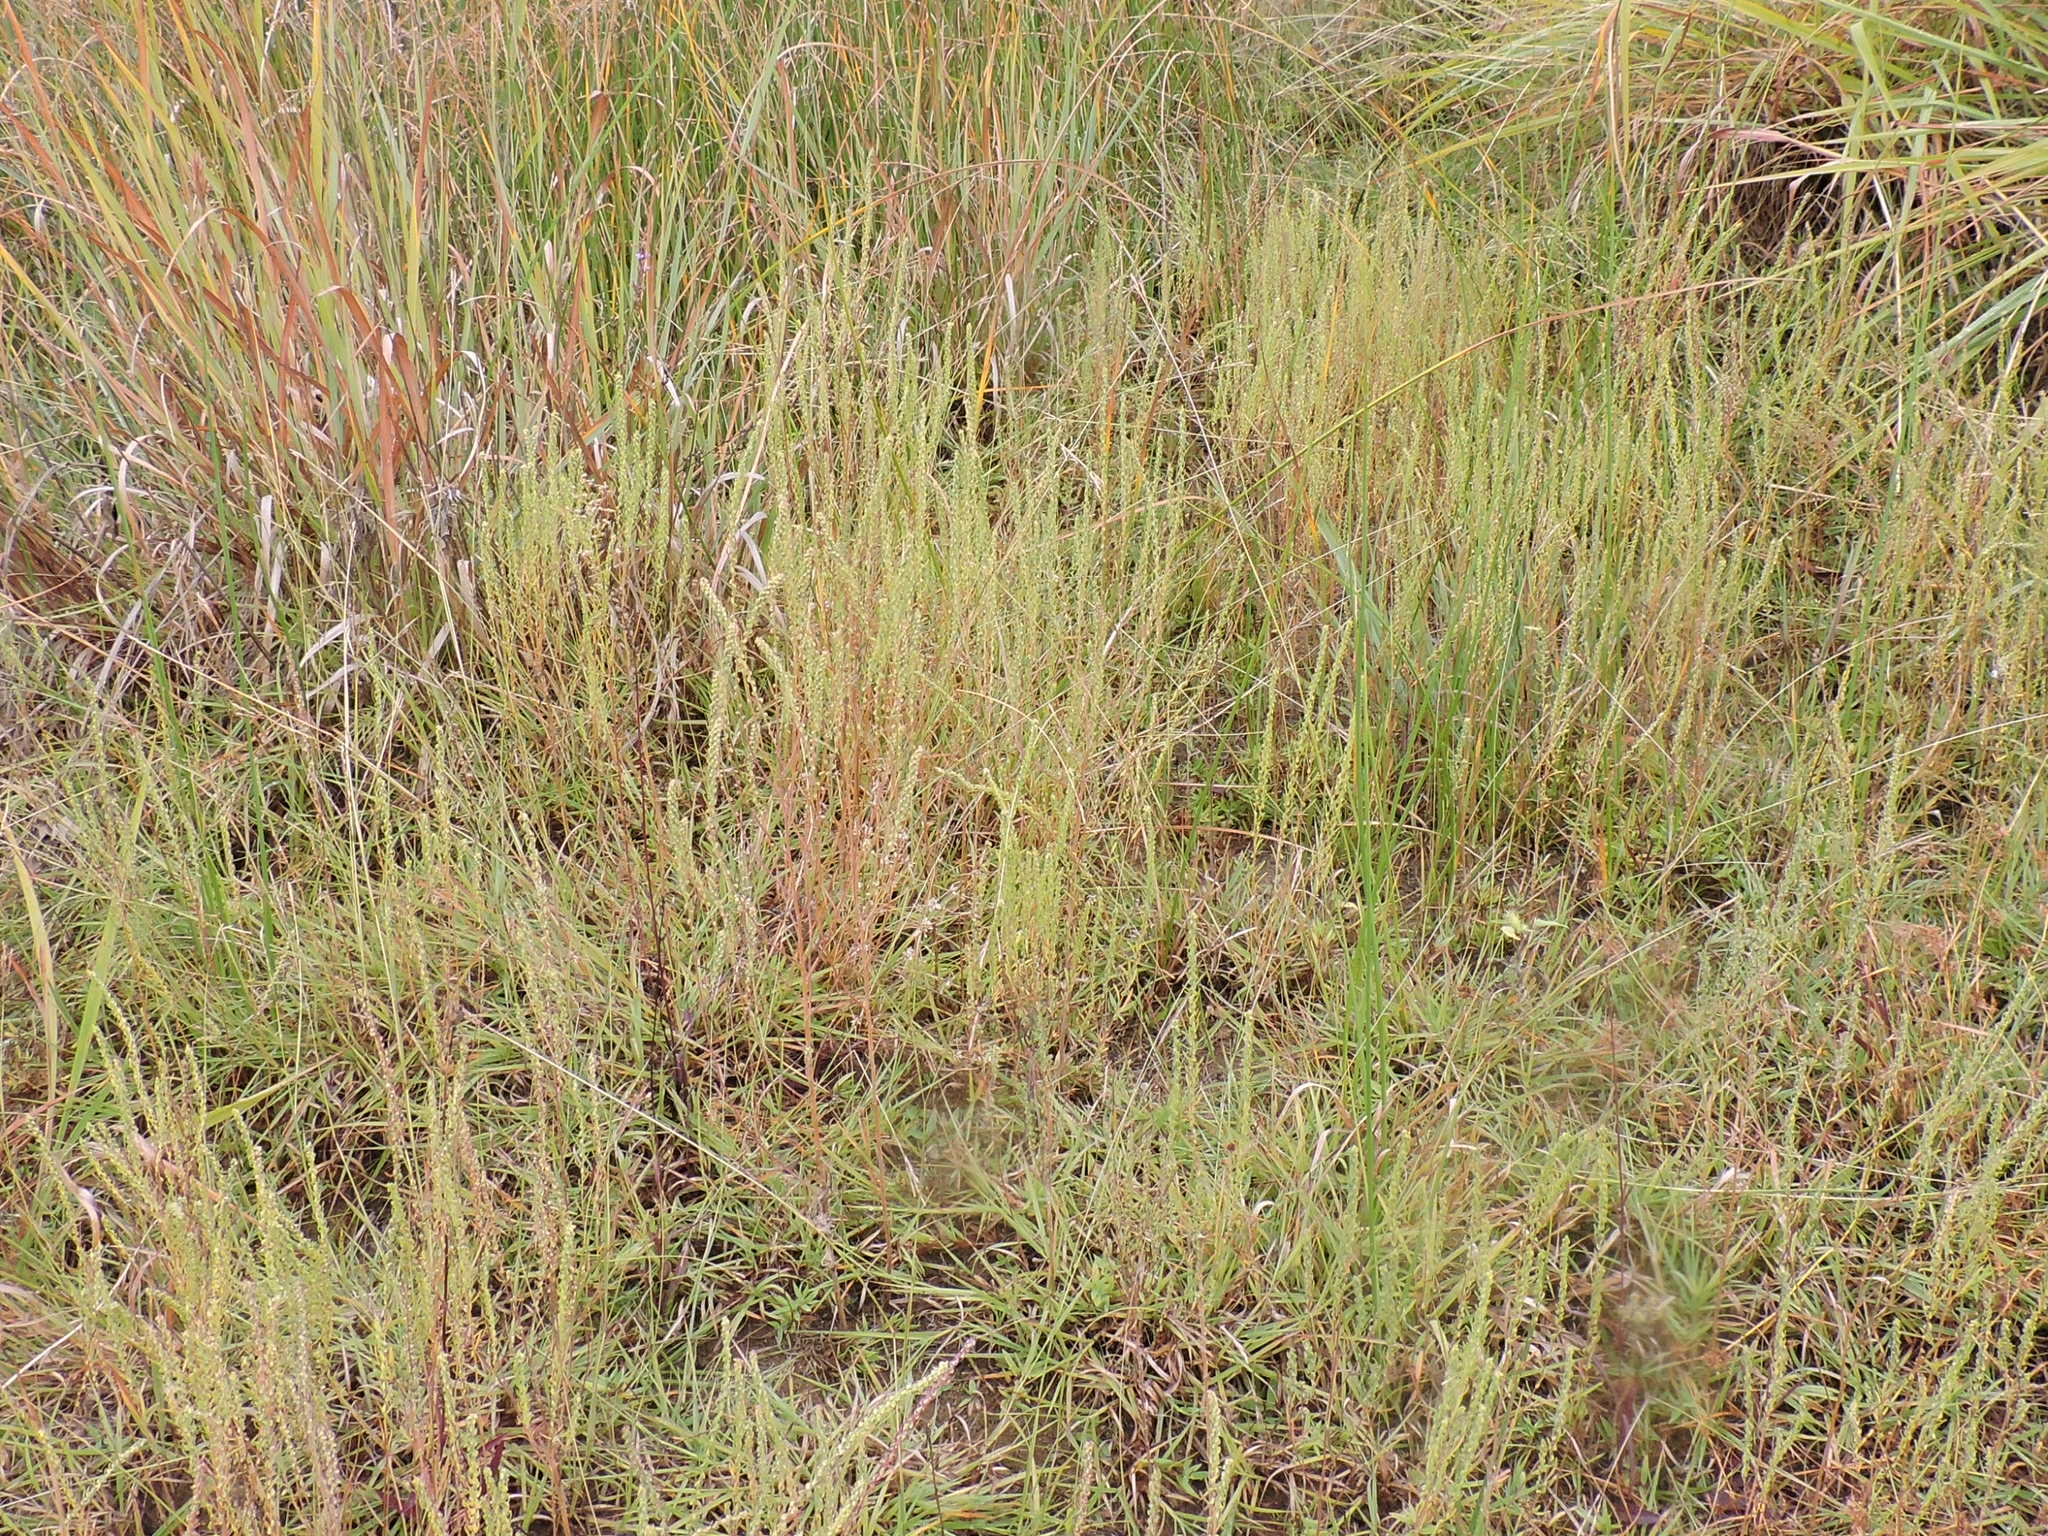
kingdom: Plantae
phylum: Tracheophyta
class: Magnoliopsida
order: Asterales
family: Asteraceae
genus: Iva
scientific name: Iva asperifolia
